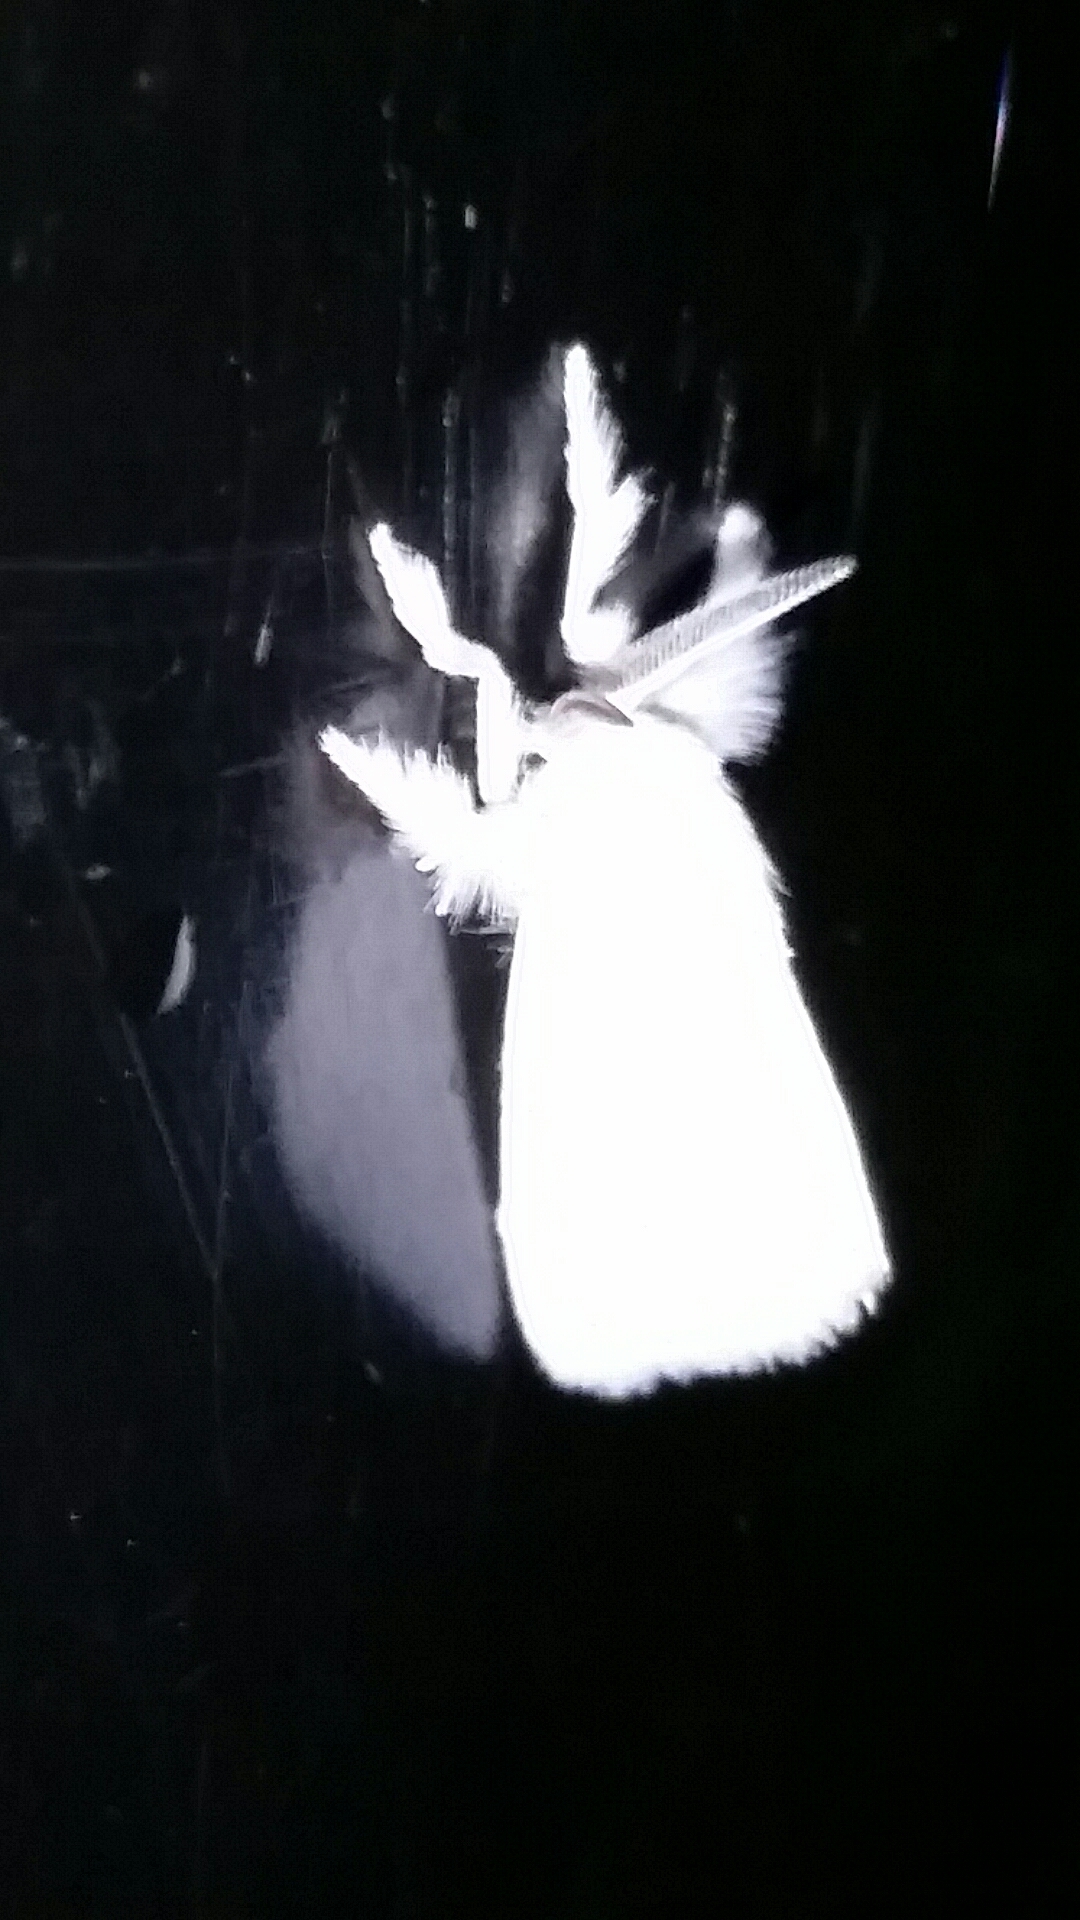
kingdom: Animalia
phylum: Arthropoda
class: Insecta
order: Lepidoptera
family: Limacodidae
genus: Alarodia
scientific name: Alarodia slossoniae
